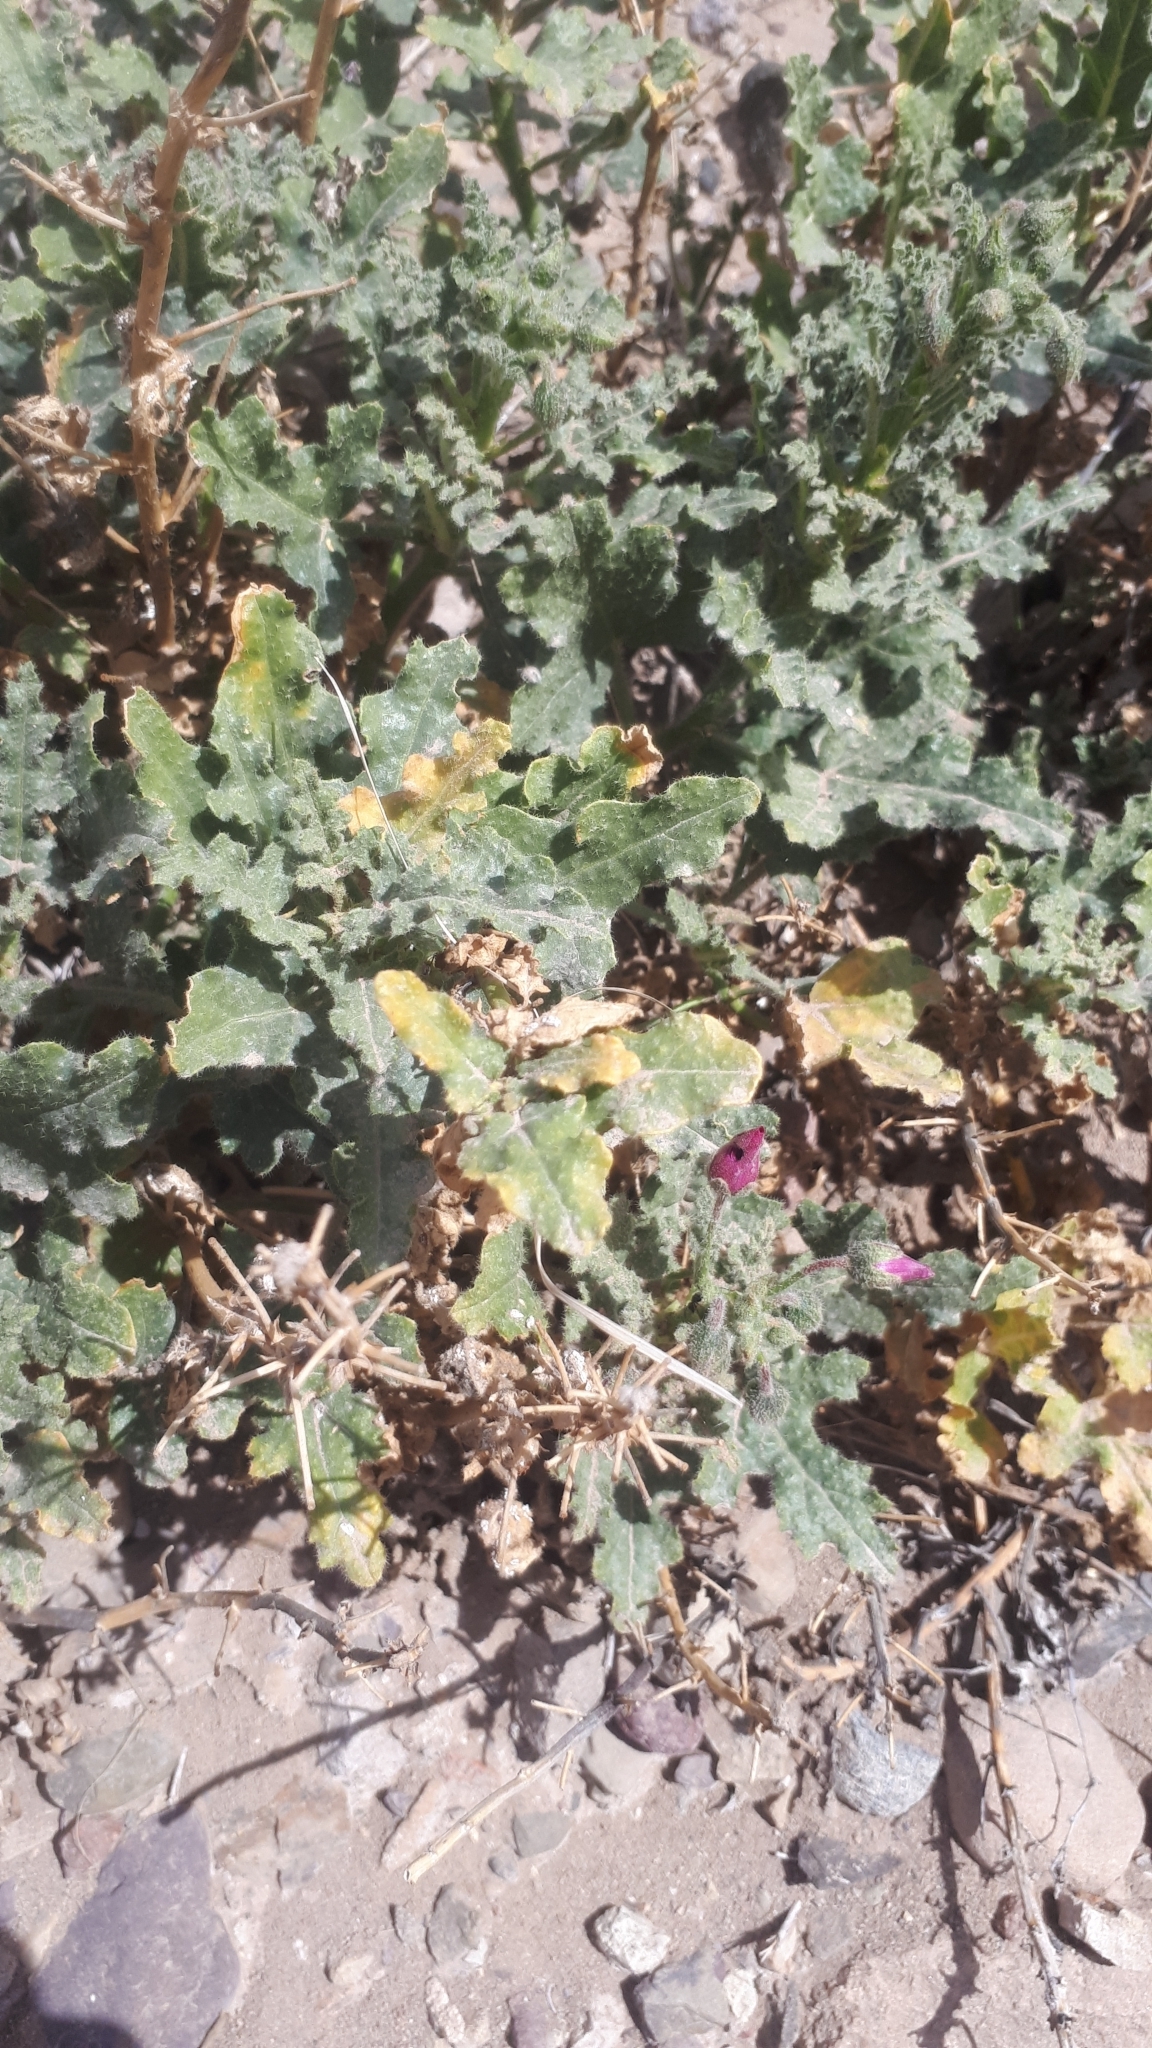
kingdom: Plantae
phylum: Tracheophyta
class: Magnoliopsida
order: Malvales
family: Malvaceae
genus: Lecanophora
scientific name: Lecanophora heterophylla
